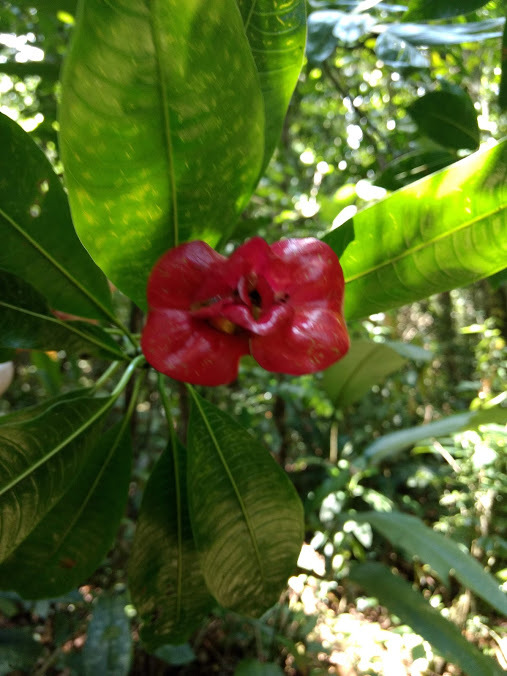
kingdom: Plantae
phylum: Tracheophyta
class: Magnoliopsida
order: Gentianales
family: Rubiaceae
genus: Palicourea
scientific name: Palicourea elata
